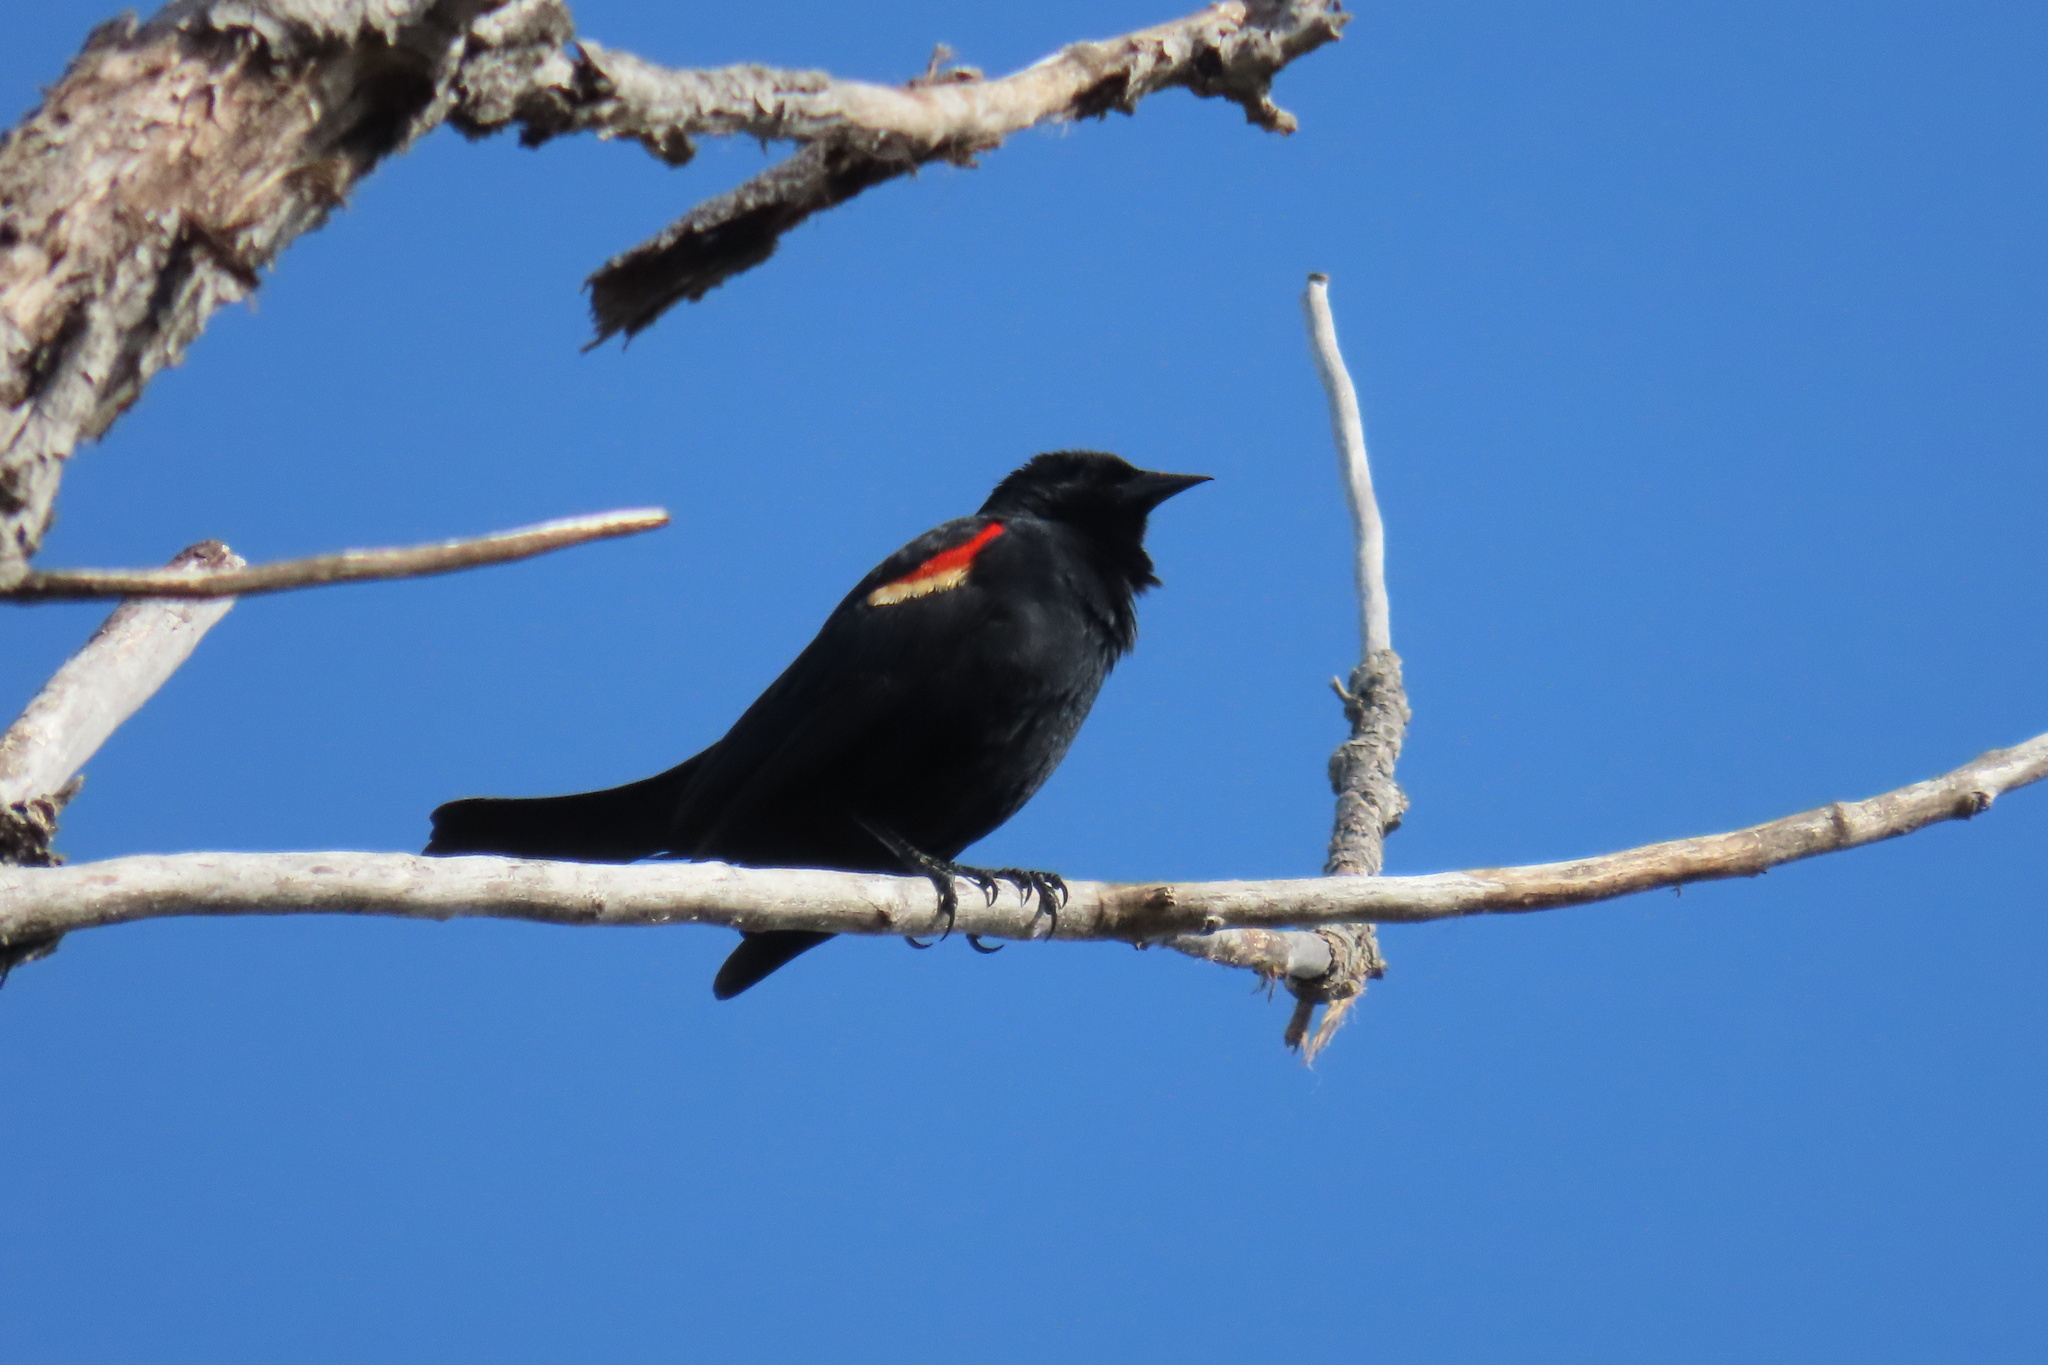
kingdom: Animalia
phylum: Chordata
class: Aves
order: Passeriformes
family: Icteridae
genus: Agelaius
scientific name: Agelaius phoeniceus
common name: Red-winged blackbird
